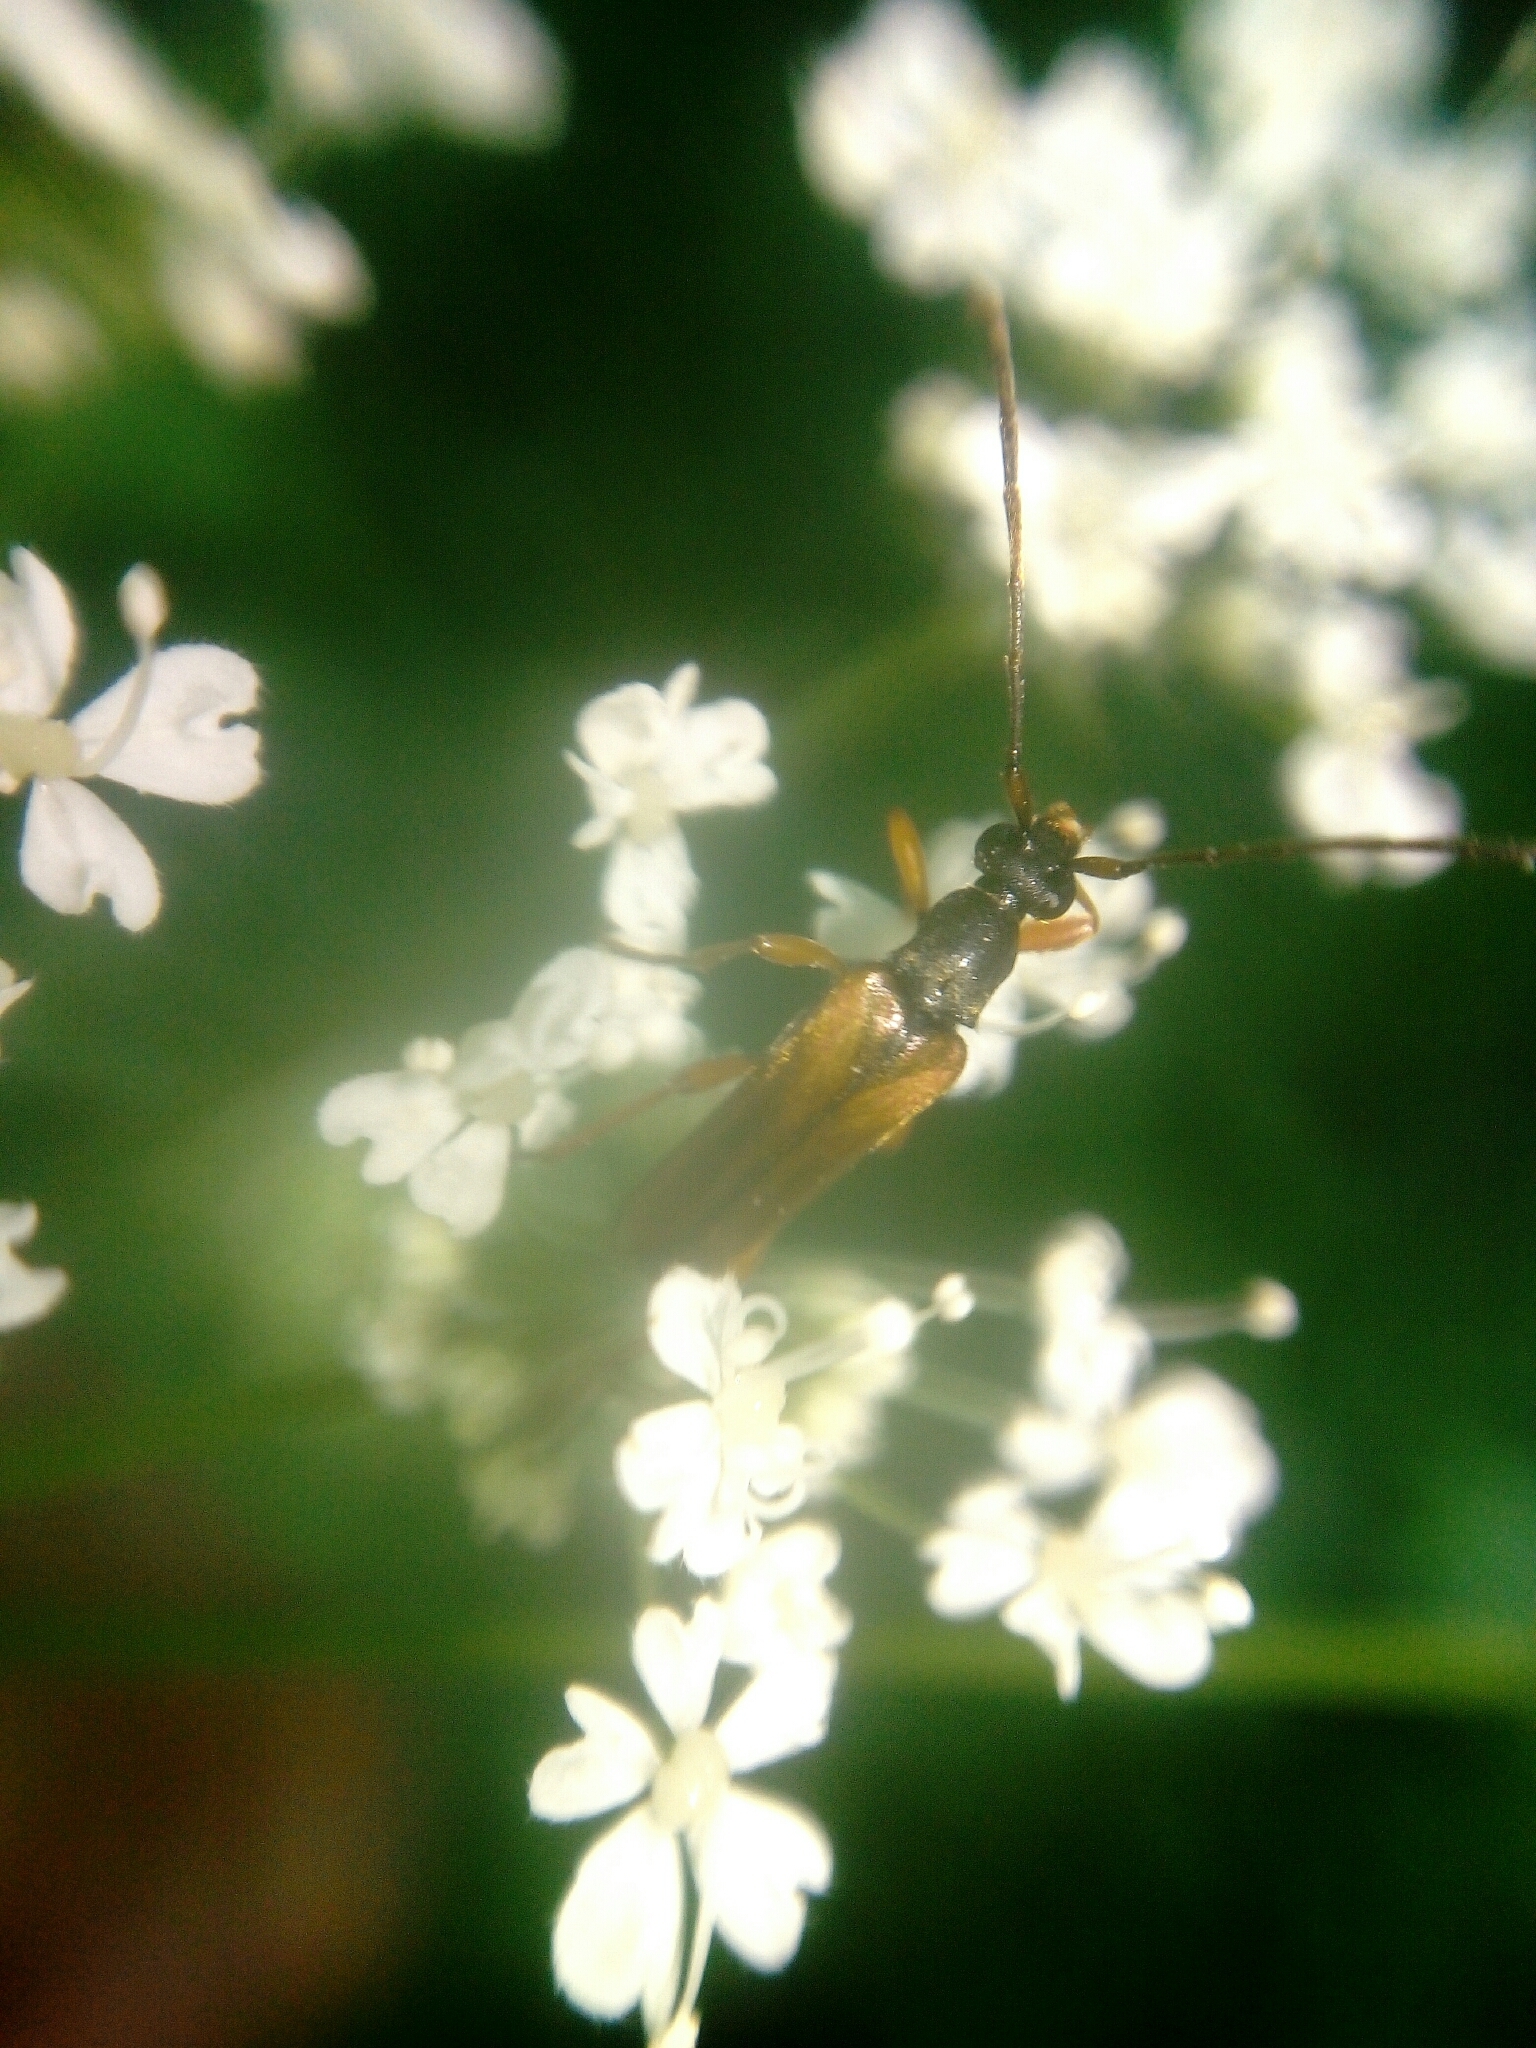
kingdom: Animalia
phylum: Arthropoda
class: Insecta
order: Coleoptera
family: Cerambycidae
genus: Alosterna
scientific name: Alosterna tabacicolor
